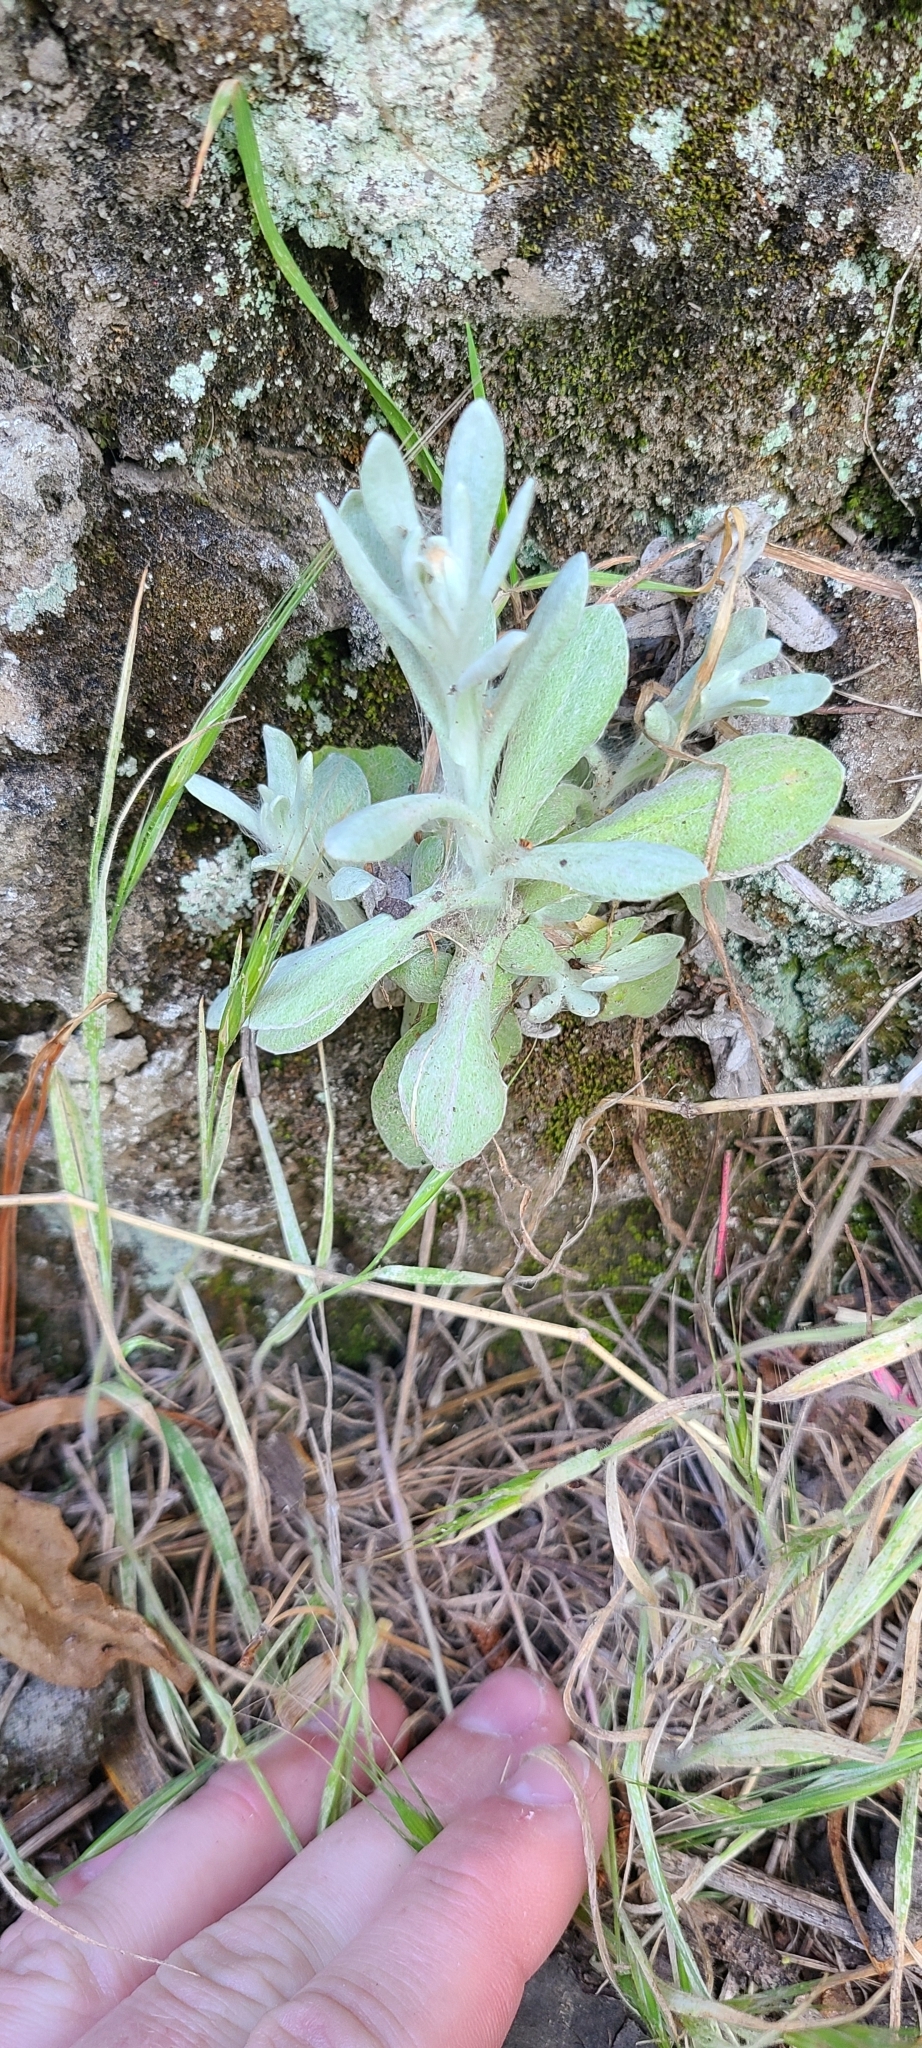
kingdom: Plantae
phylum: Tracheophyta
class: Magnoliopsida
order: Asterales
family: Asteraceae
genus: Pseudognaphalium
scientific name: Pseudognaphalium
